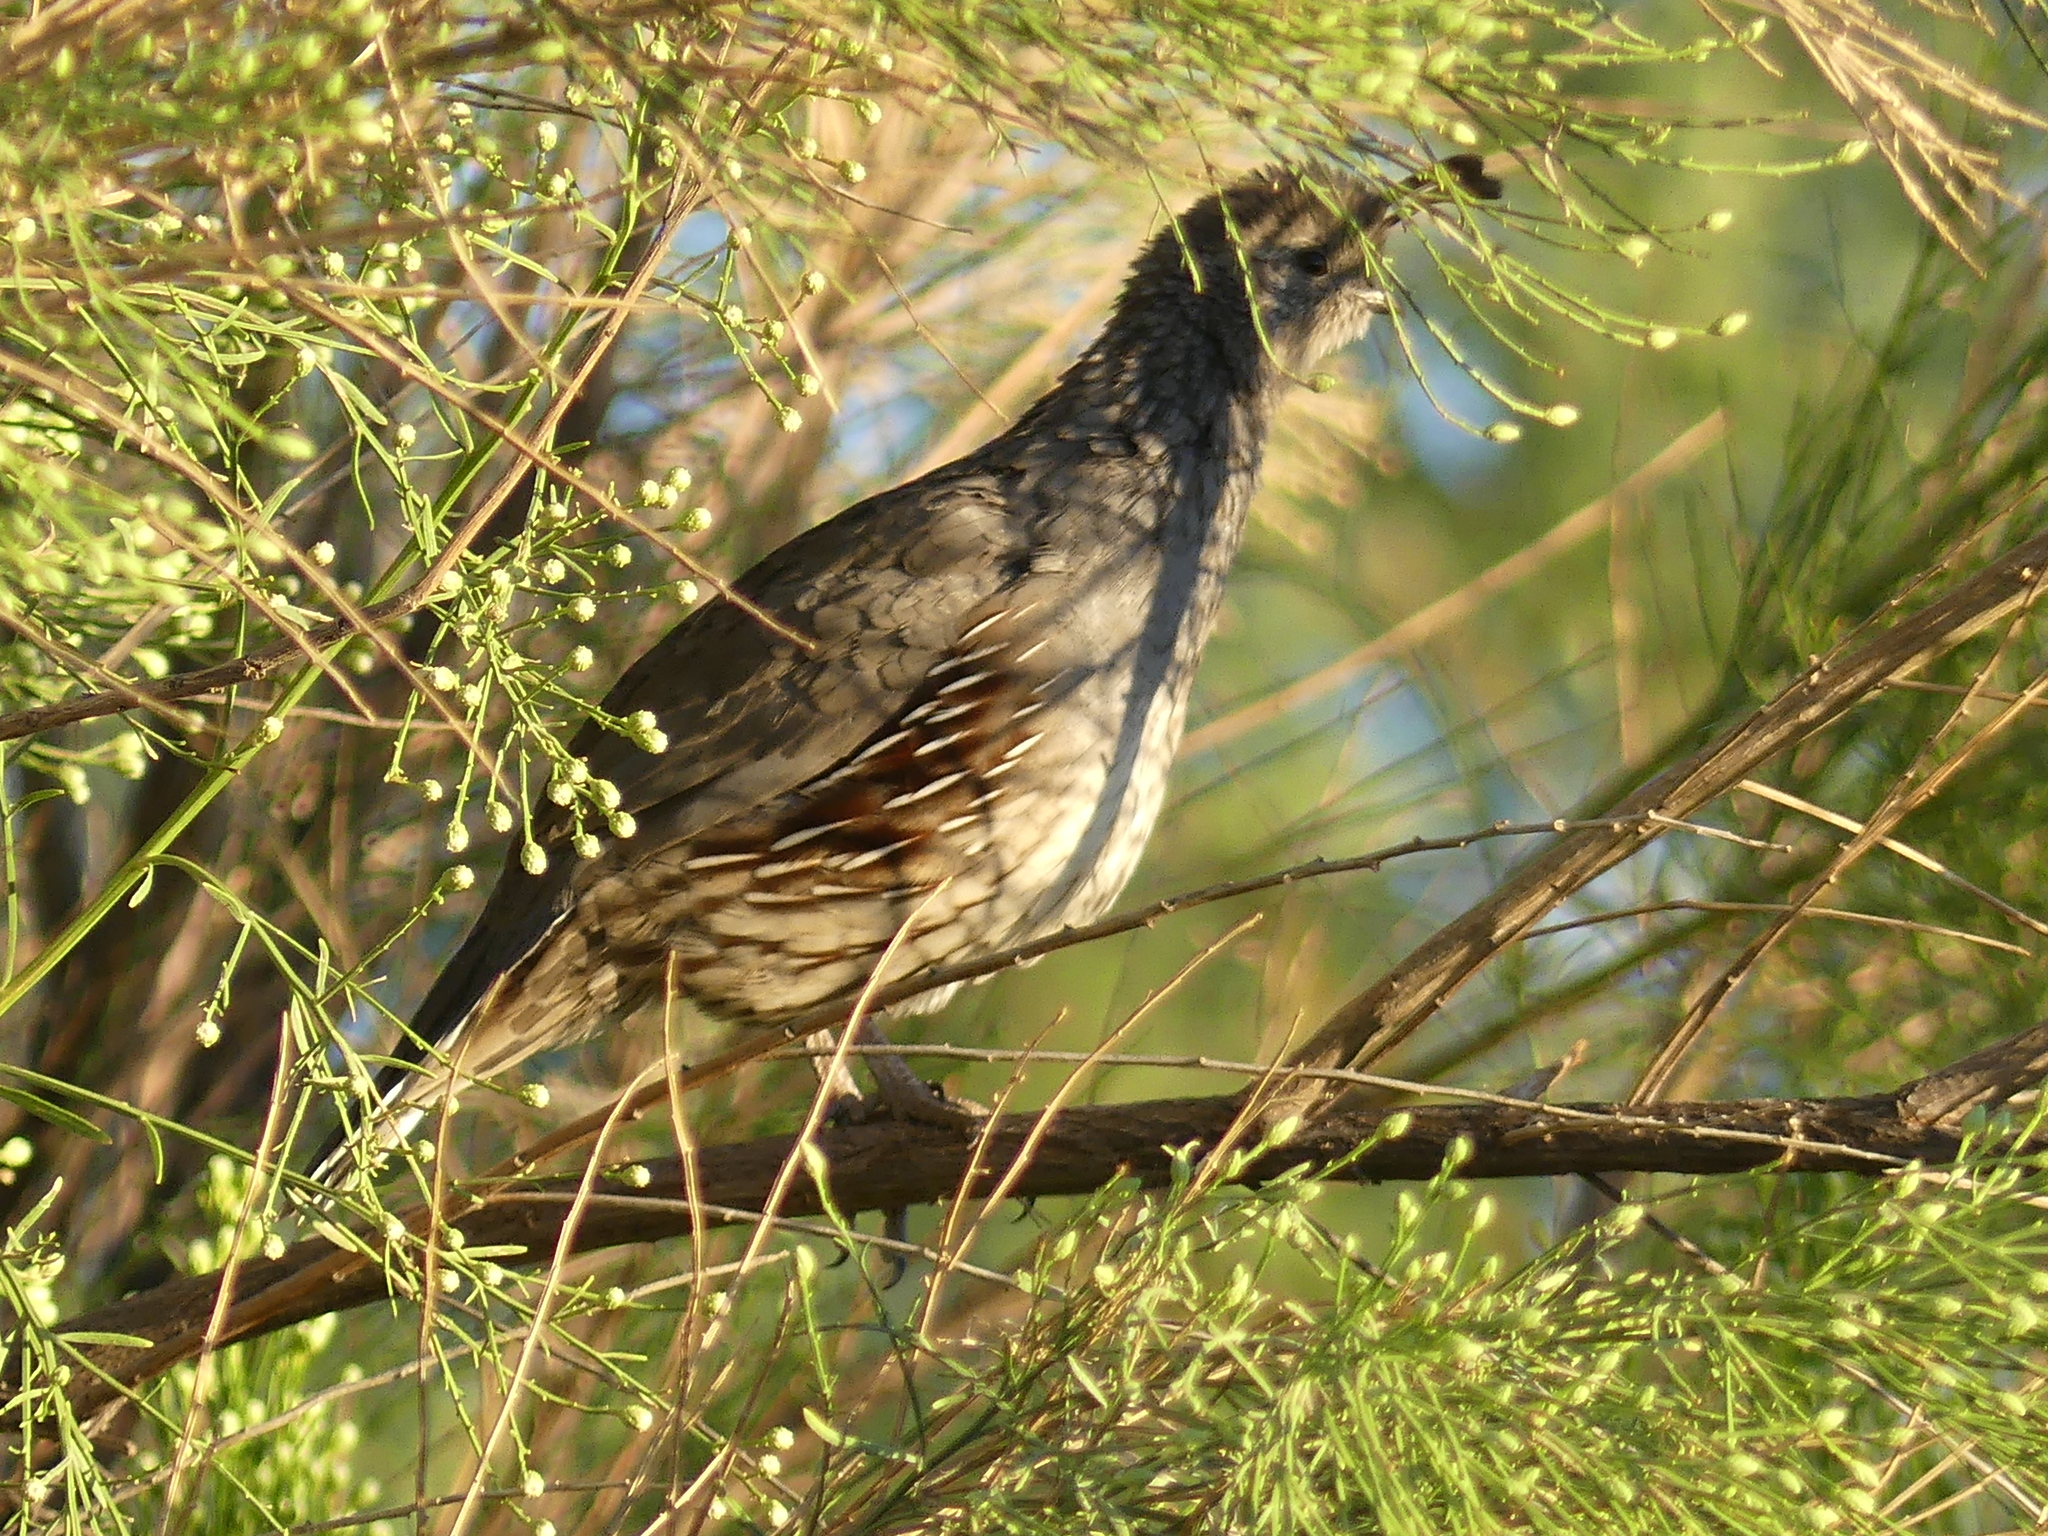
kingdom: Animalia
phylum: Chordata
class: Aves
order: Galliformes
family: Odontophoridae
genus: Callipepla
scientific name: Callipepla gambelii
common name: Gambel's quail
